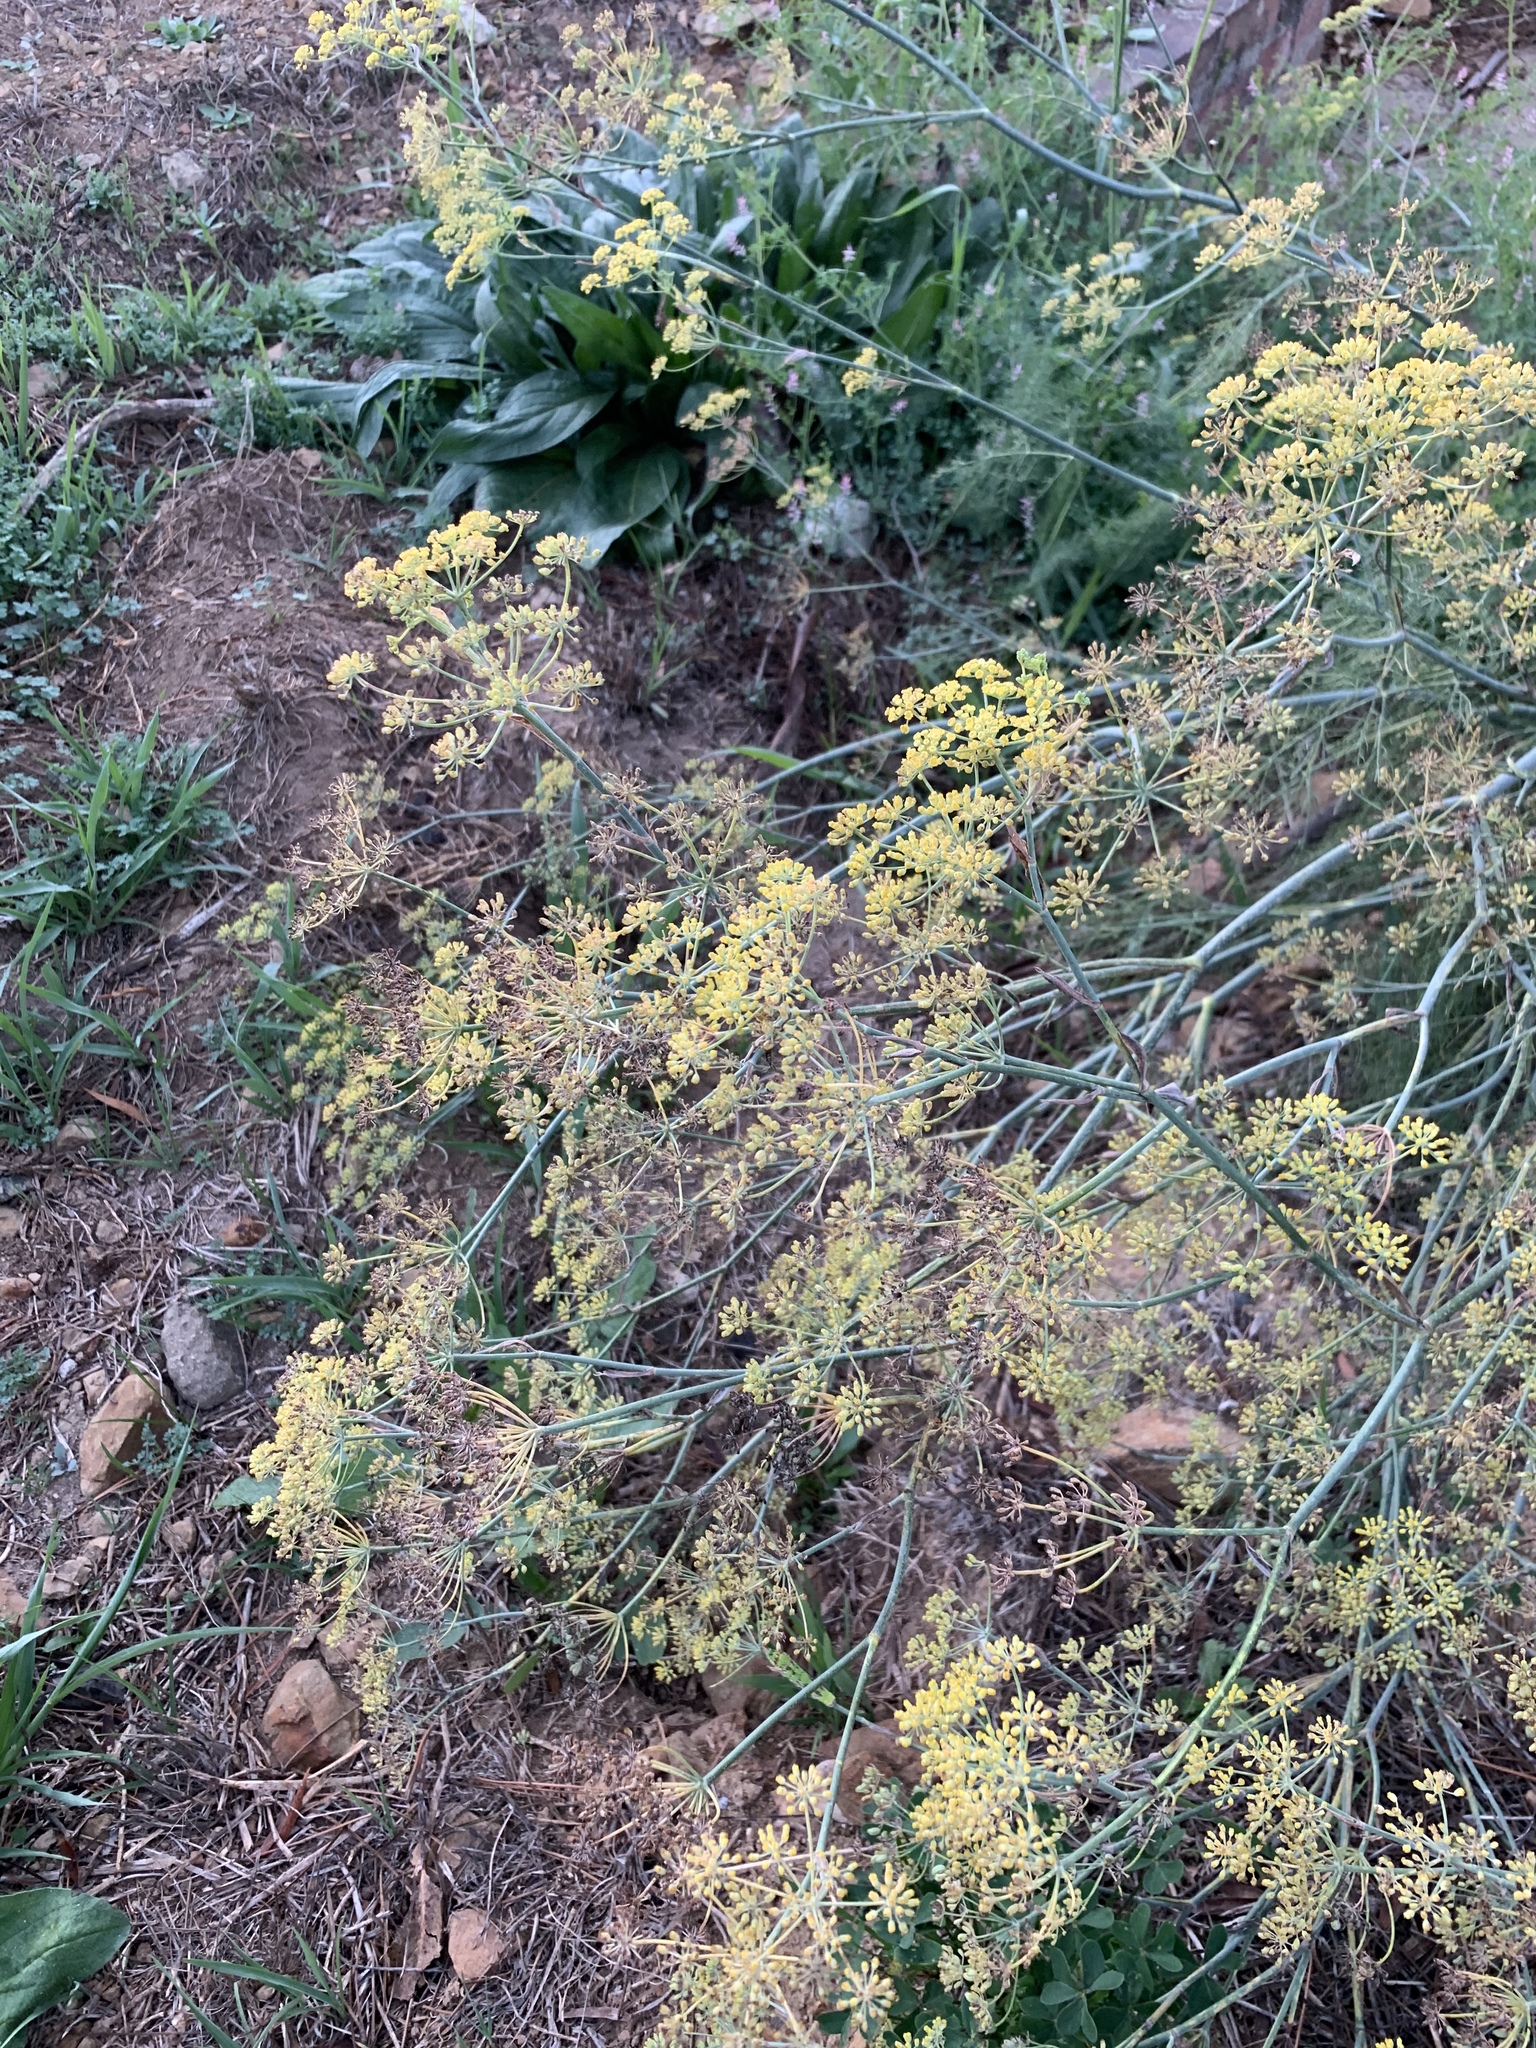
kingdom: Plantae
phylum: Tracheophyta
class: Magnoliopsida
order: Apiales
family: Apiaceae
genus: Foeniculum
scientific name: Foeniculum vulgare
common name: Fennel
